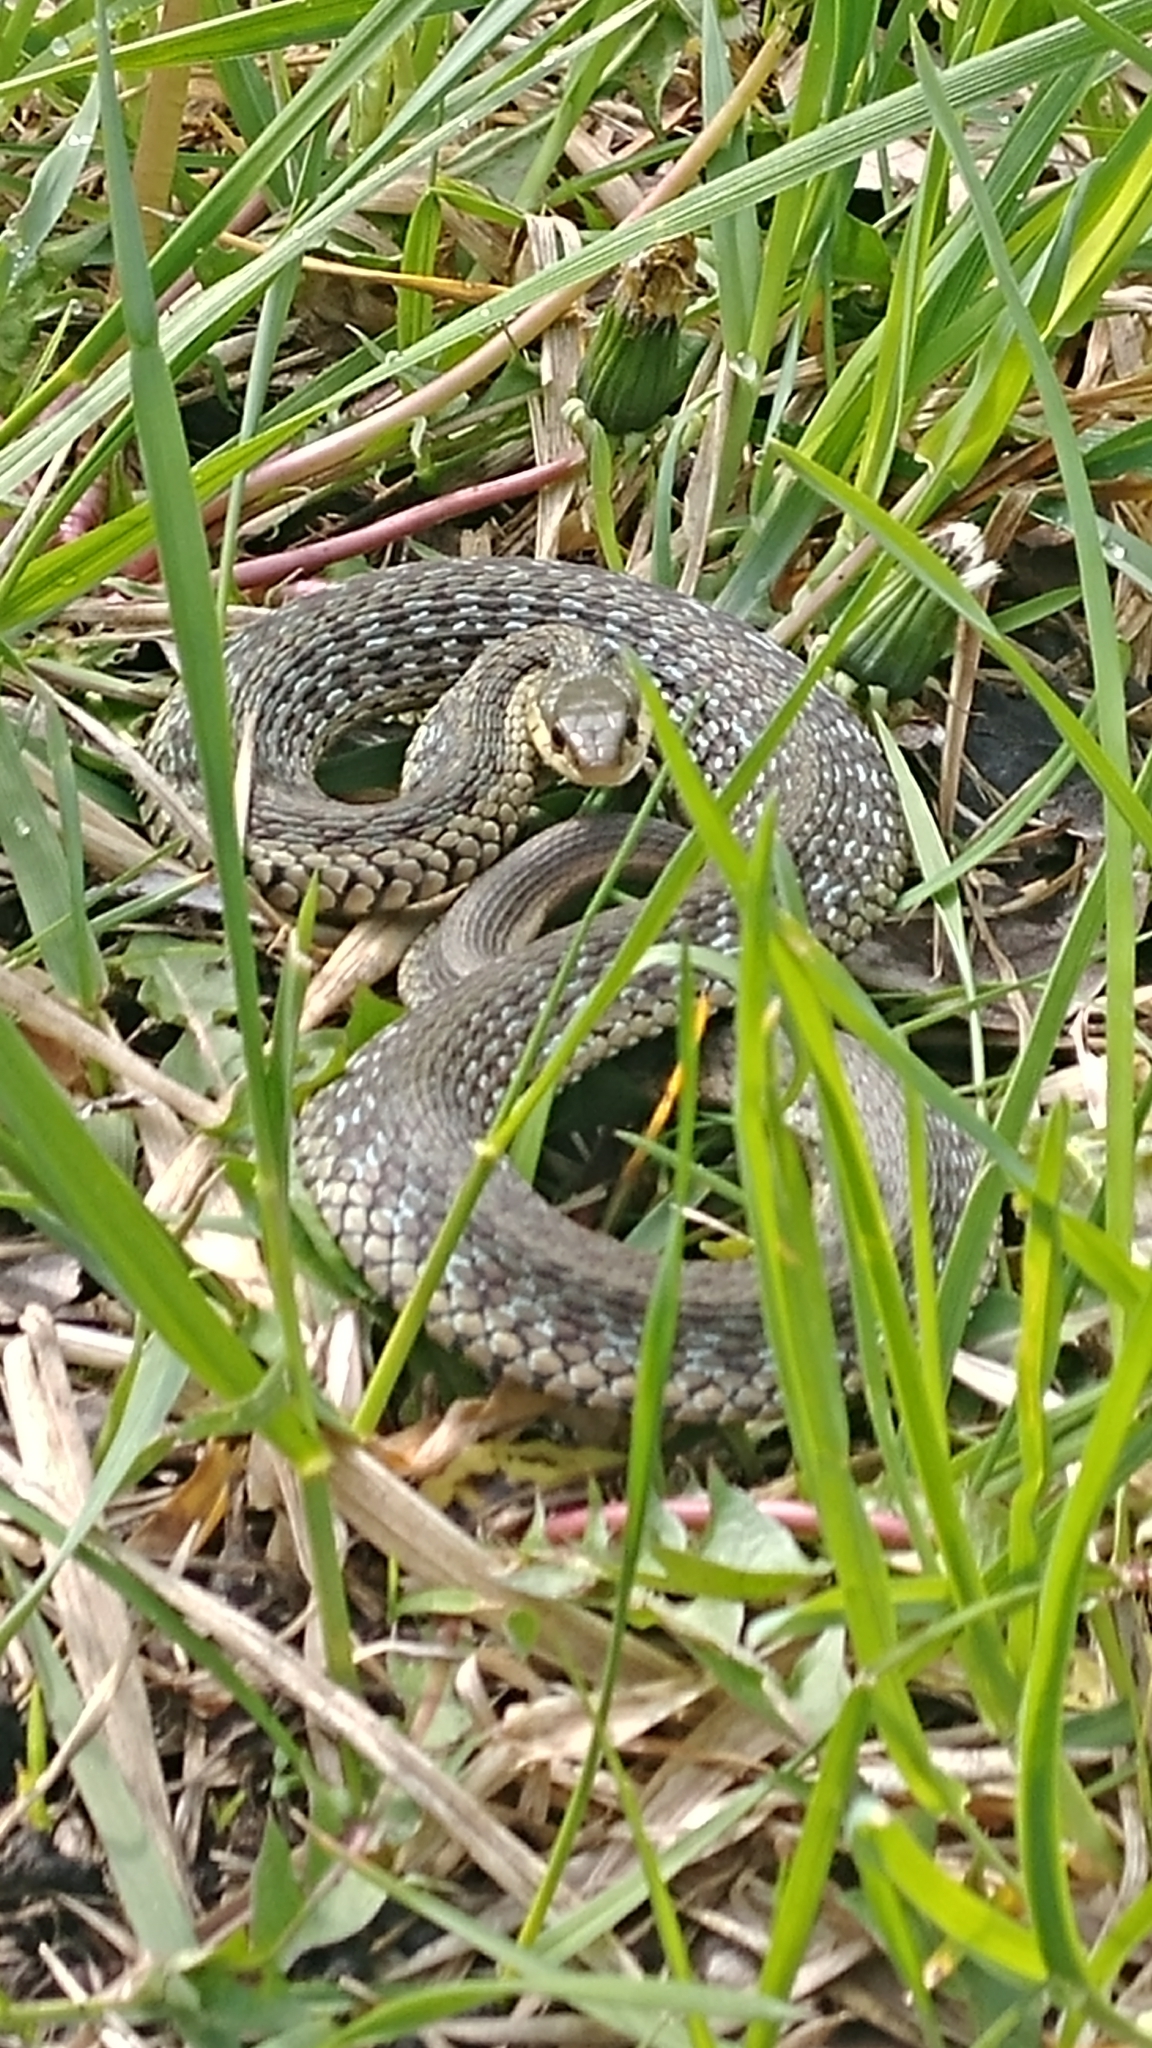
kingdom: Animalia
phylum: Chordata
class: Squamata
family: Colubridae
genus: Thamnophis
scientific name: Thamnophis sirtalis
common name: Common garter snake
